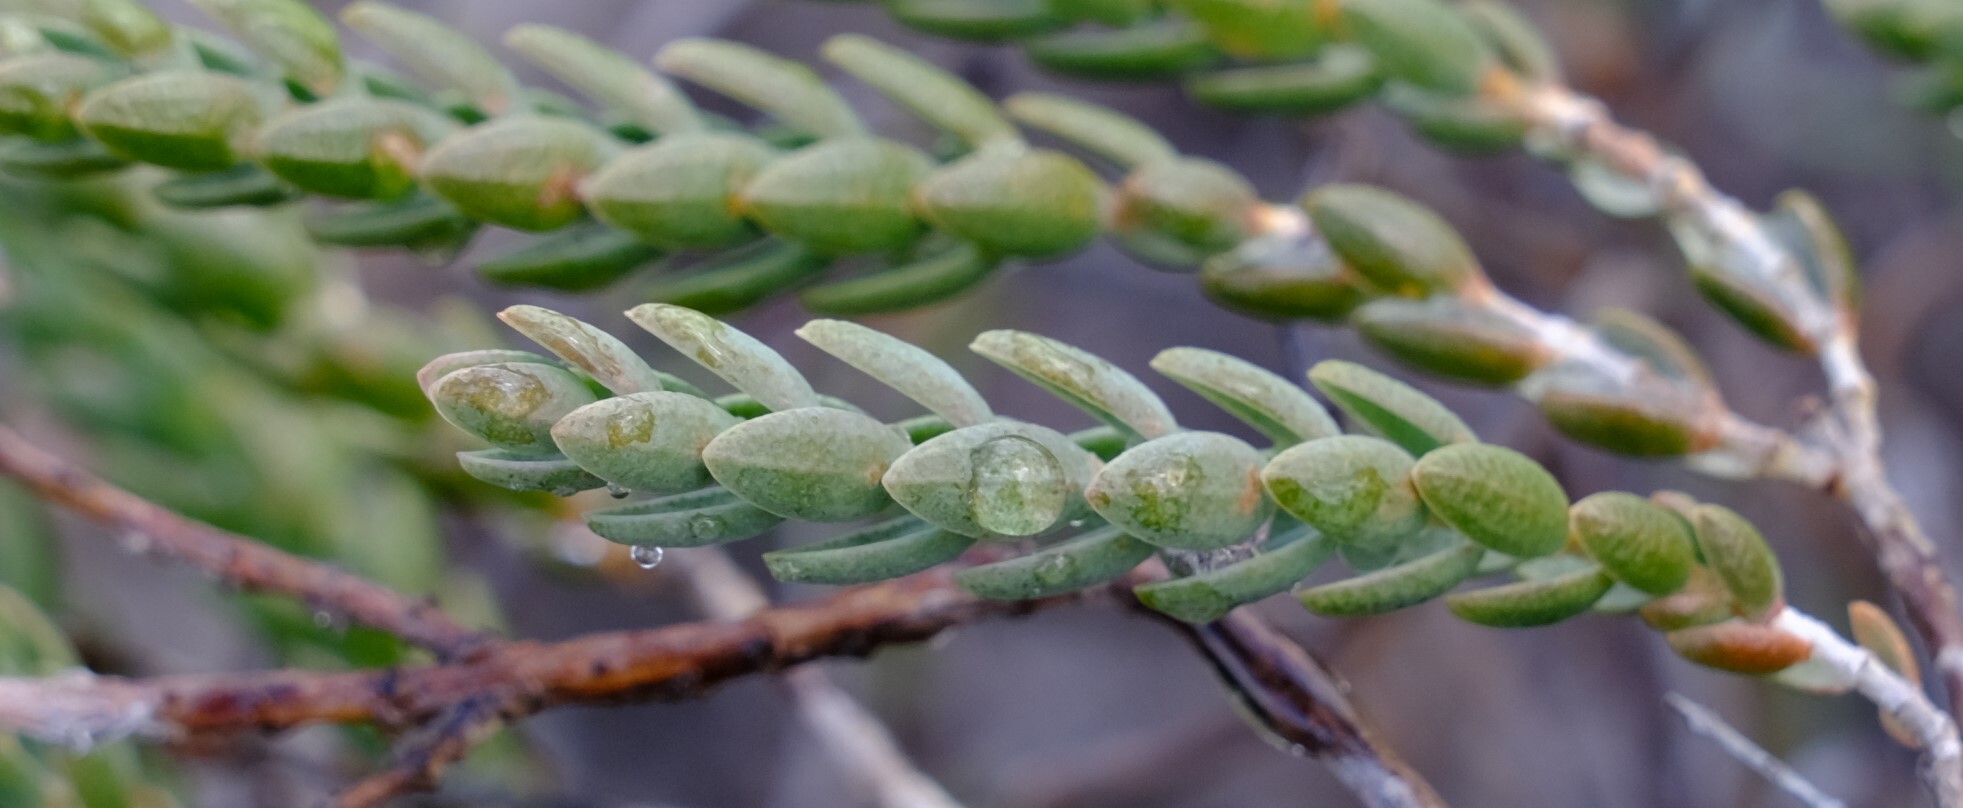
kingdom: Plantae
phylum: Tracheophyta
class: Magnoliopsida
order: Myrtales
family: Myrtaceae
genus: Darwinia
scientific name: Darwinia speciosa
